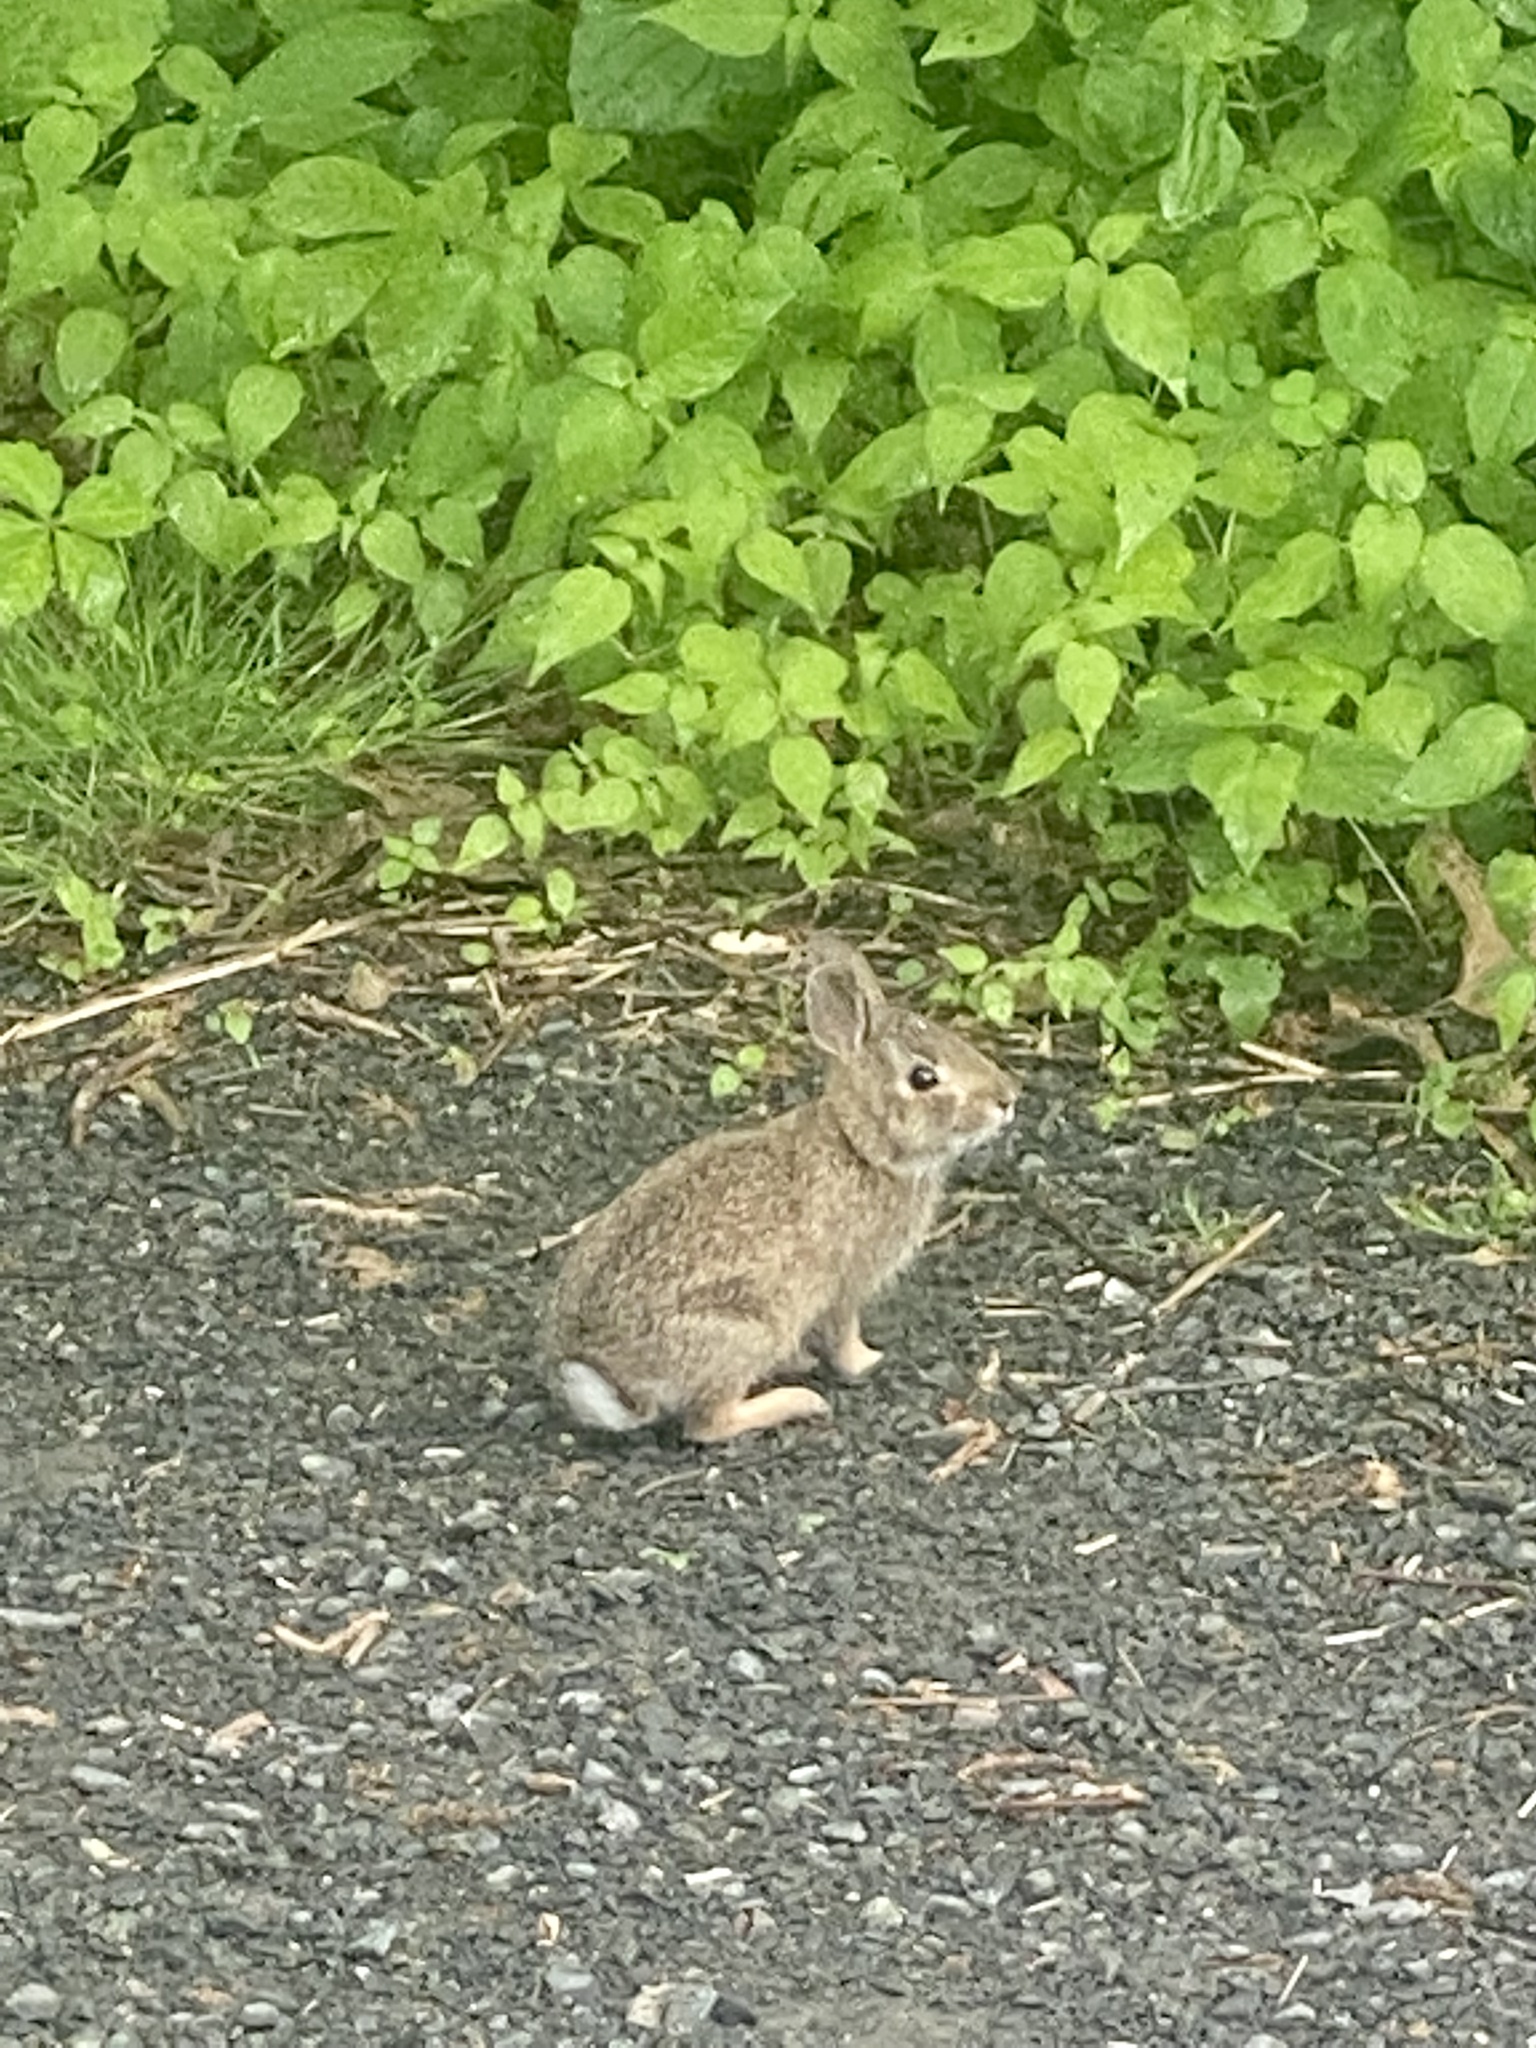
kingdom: Animalia
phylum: Chordata
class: Mammalia
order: Lagomorpha
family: Leporidae
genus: Sylvilagus
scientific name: Sylvilagus floridanus
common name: Eastern cottontail
